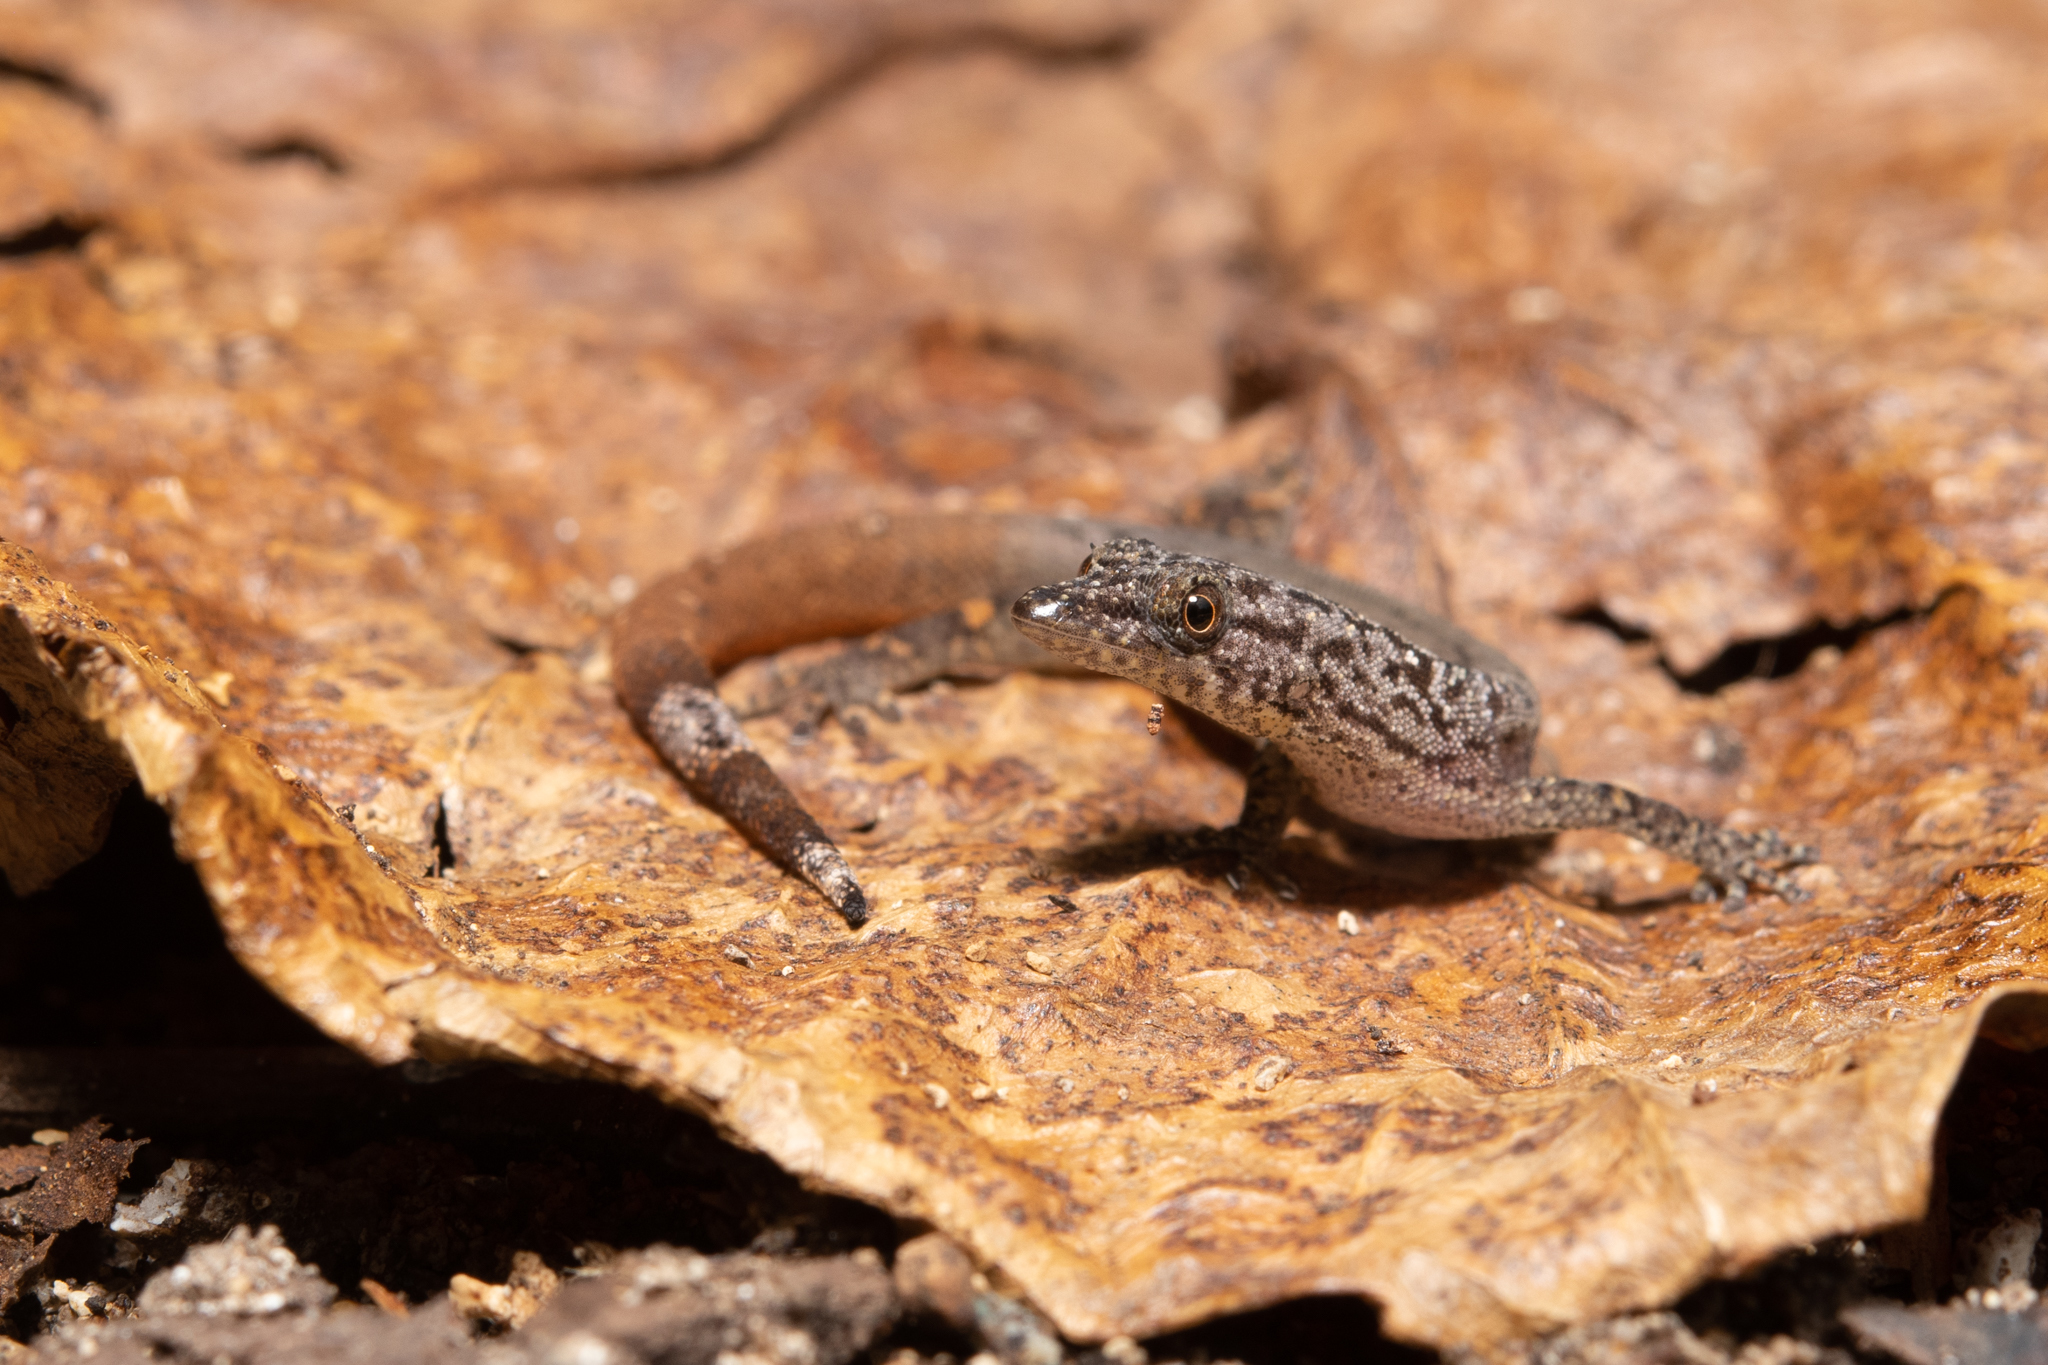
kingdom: Animalia
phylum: Chordata
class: Squamata
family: Sphaerodactylidae
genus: Sphaerodactylus
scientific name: Sphaerodactylus poindexteri
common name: Utila small-scaled geckolet
